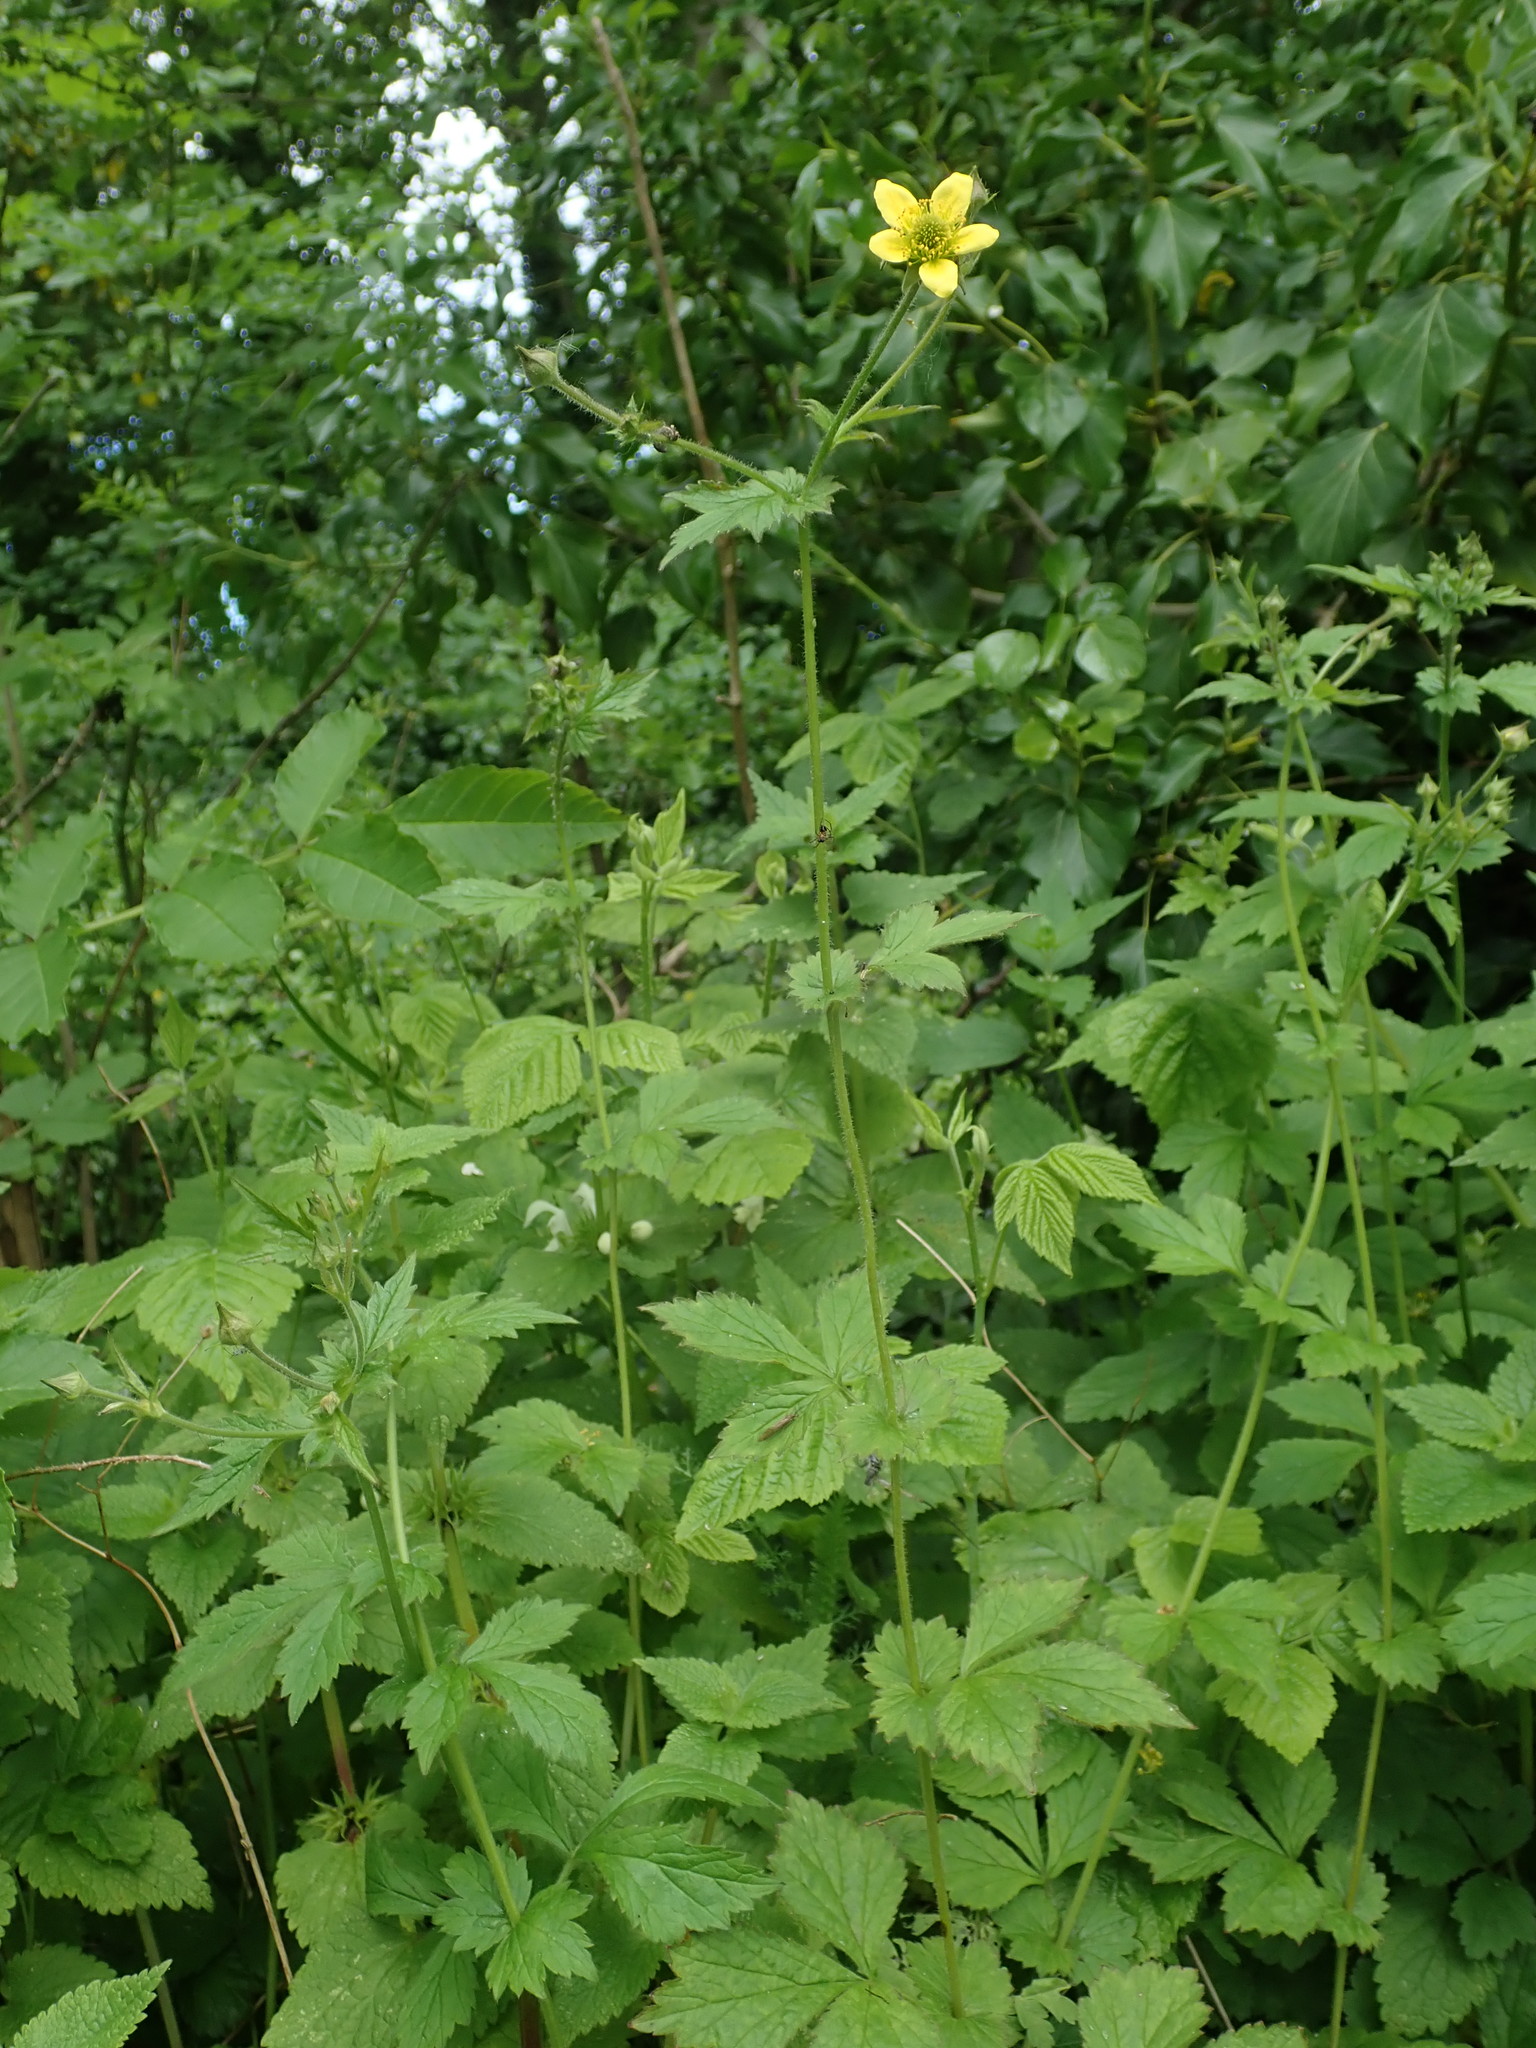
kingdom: Plantae
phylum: Tracheophyta
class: Magnoliopsida
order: Rosales
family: Rosaceae
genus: Geum
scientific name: Geum urbanum
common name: Wood avens
